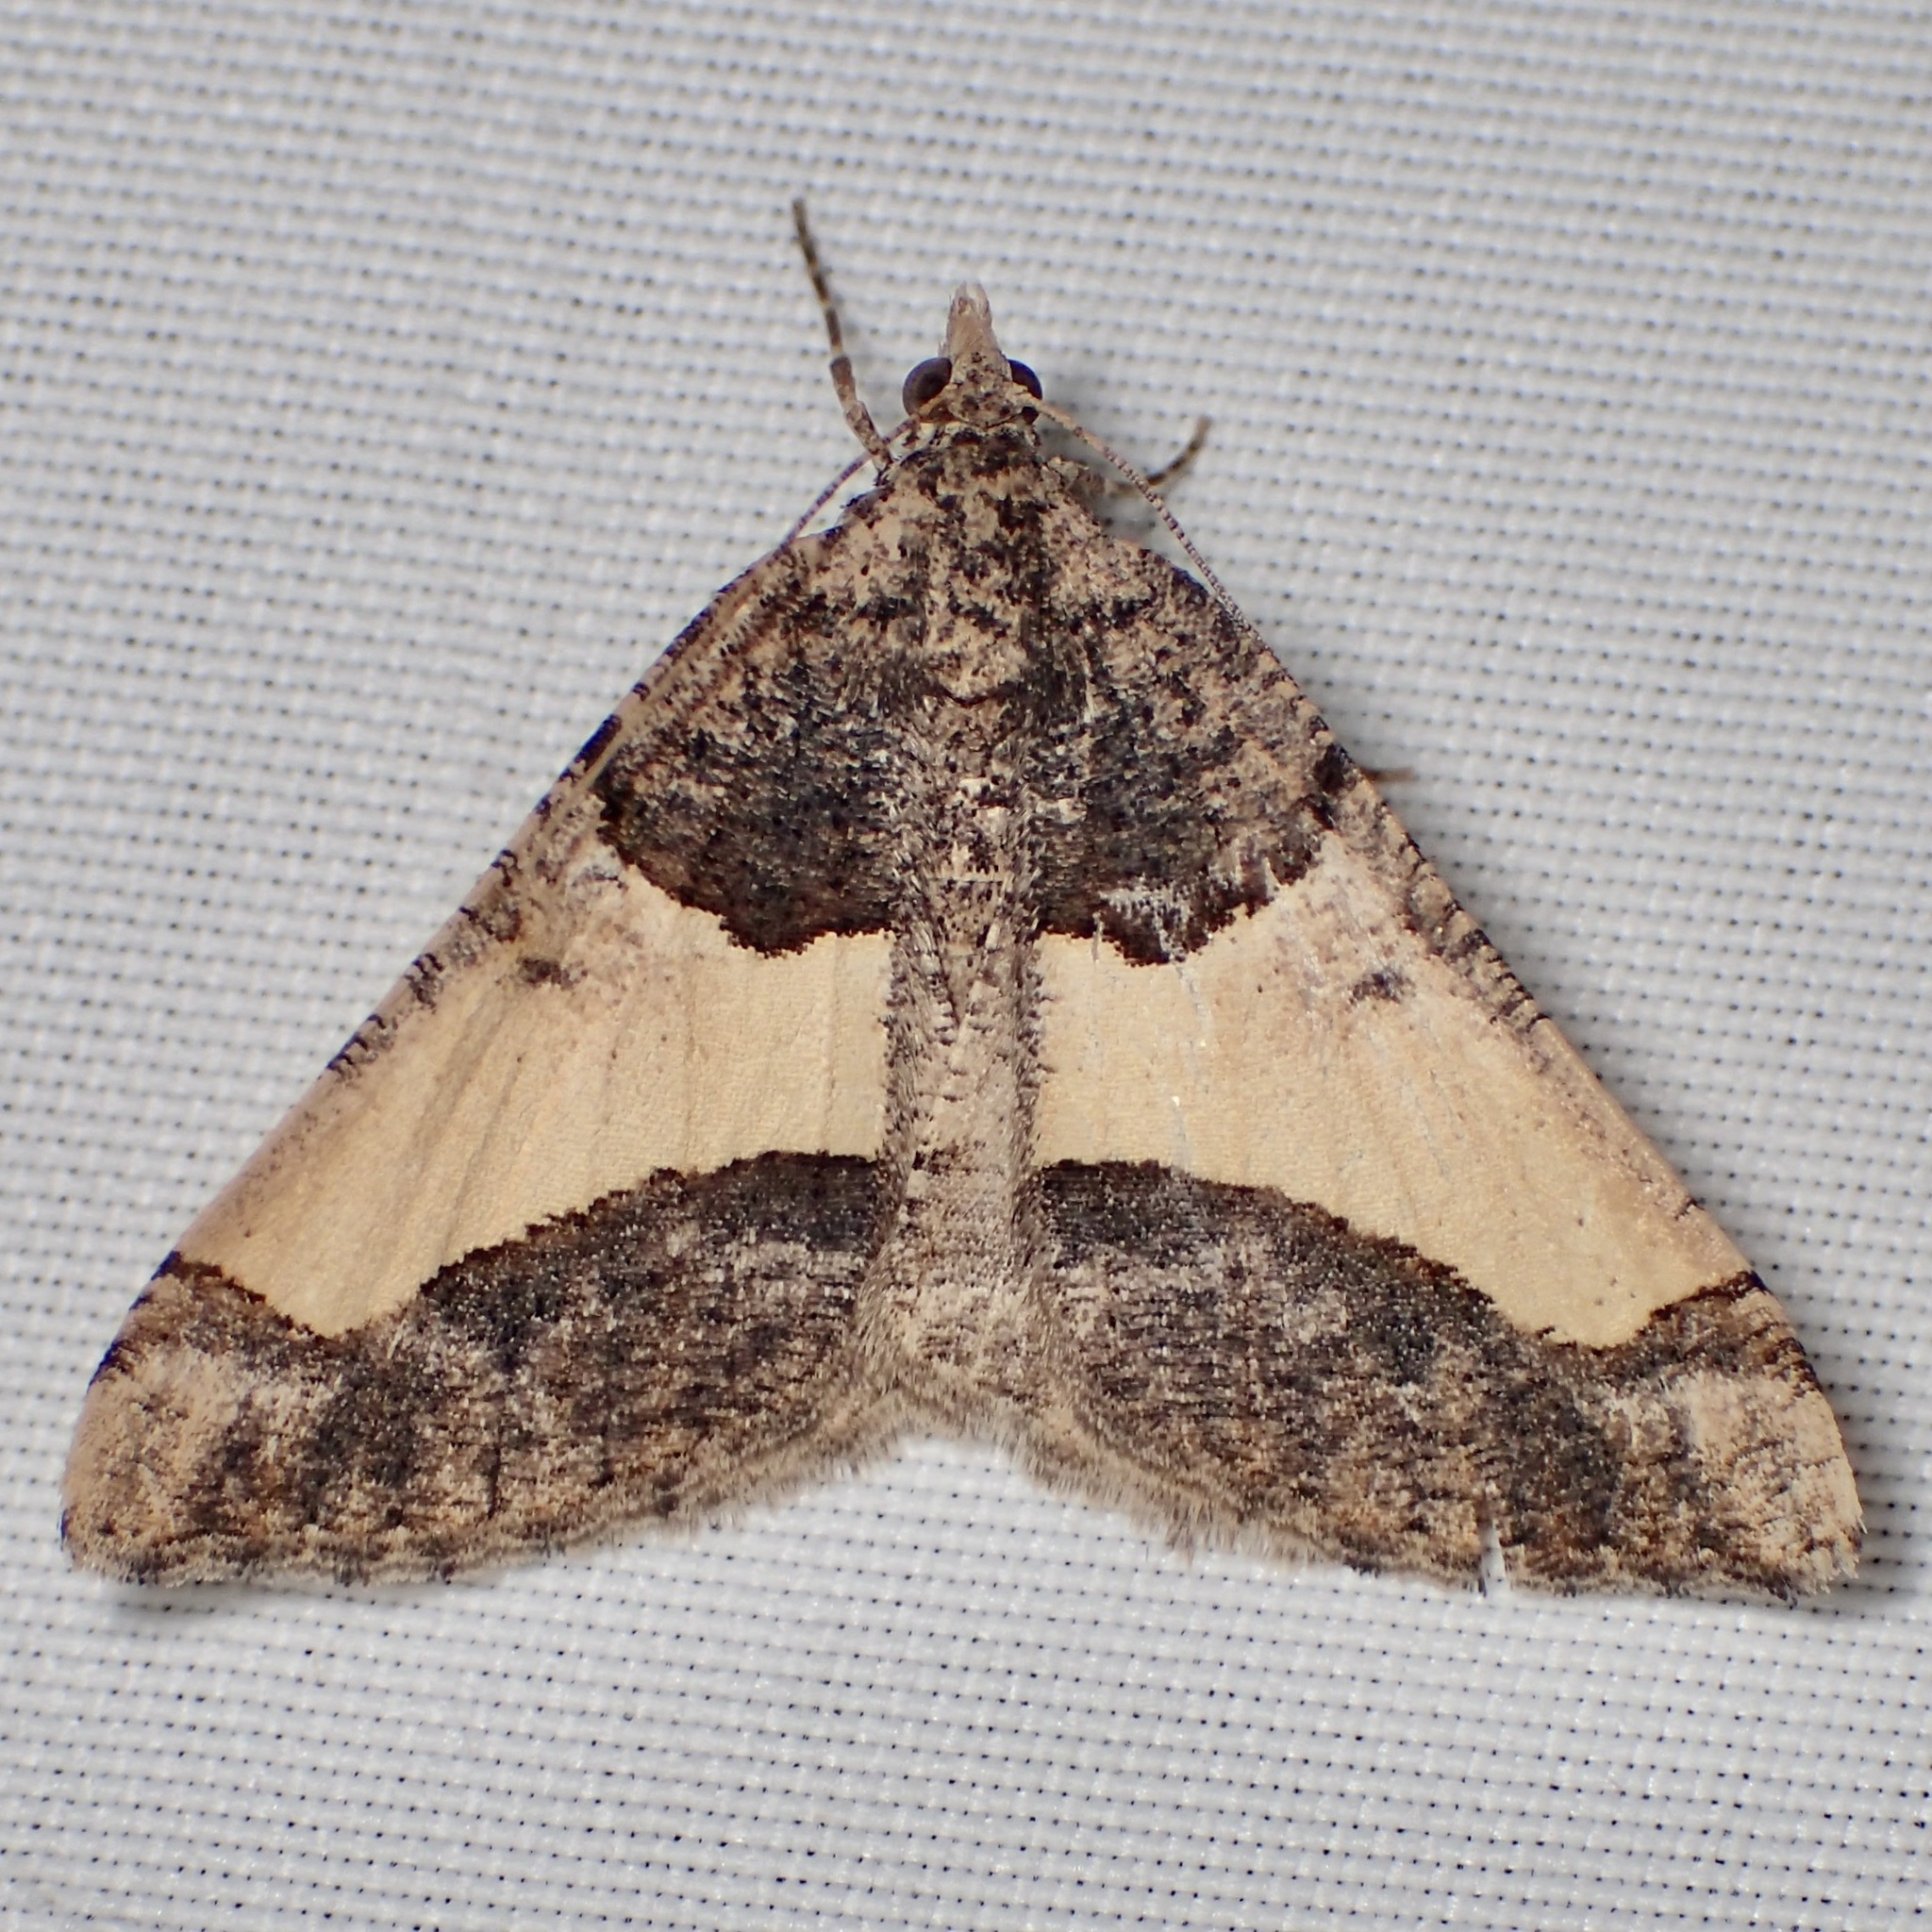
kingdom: Animalia
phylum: Arthropoda
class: Insecta
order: Lepidoptera
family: Geometridae
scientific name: Geometridae
